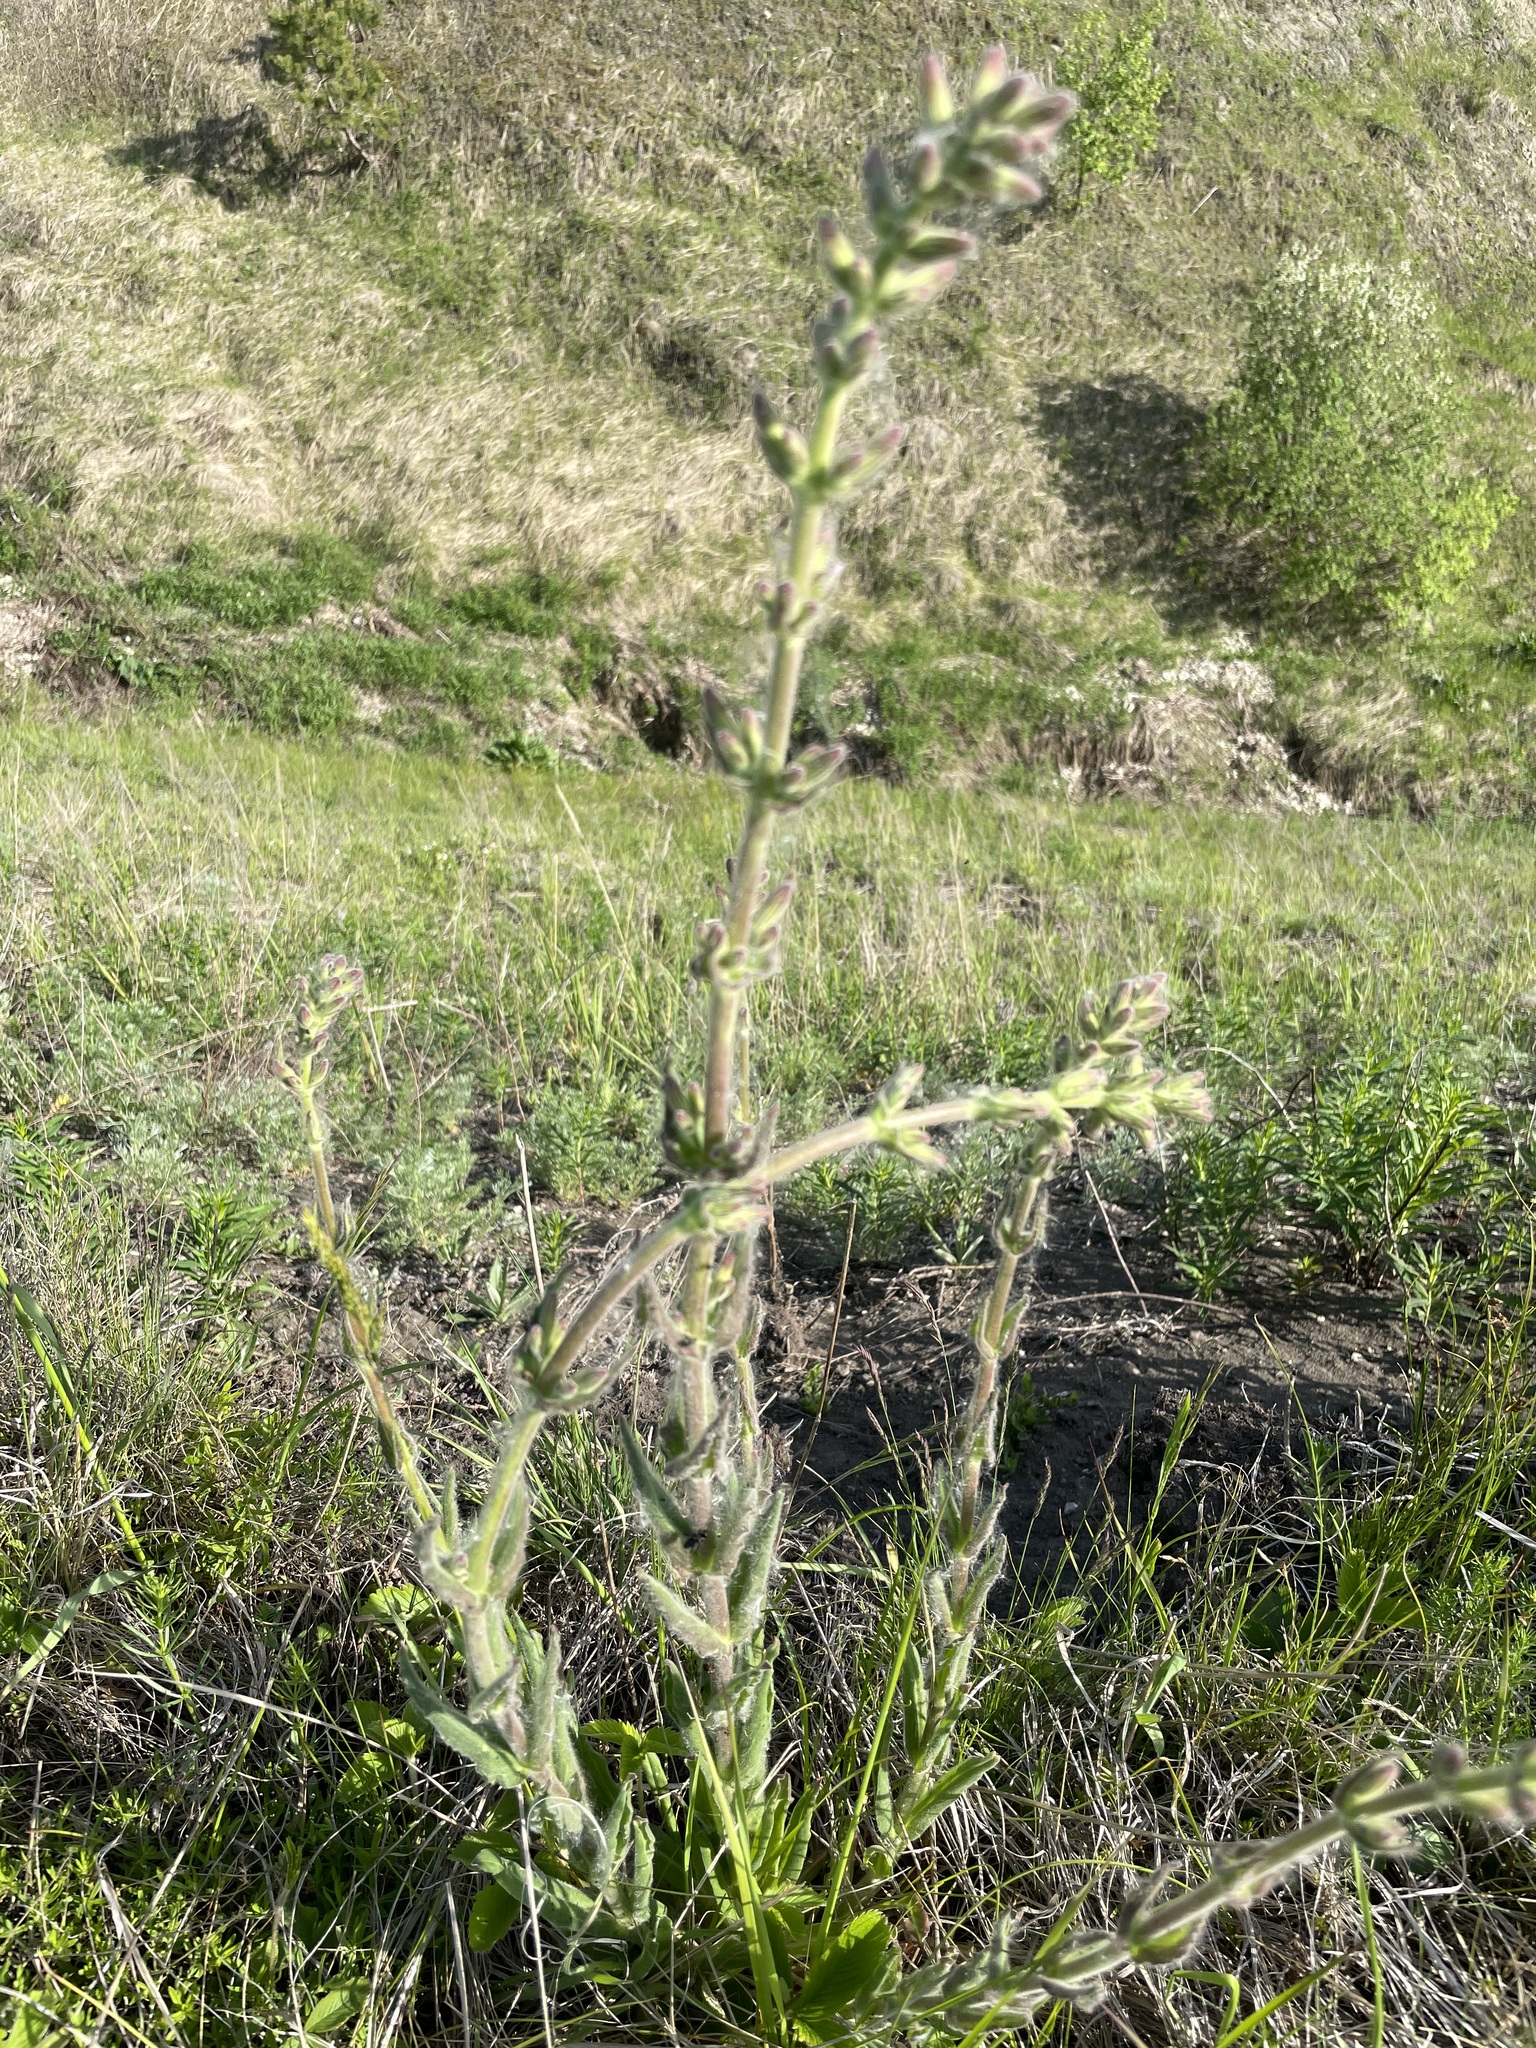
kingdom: Plantae
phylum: Tracheophyta
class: Magnoliopsida
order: Caryophyllales
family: Caryophyllaceae
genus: Silene
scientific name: Silene viscosa
